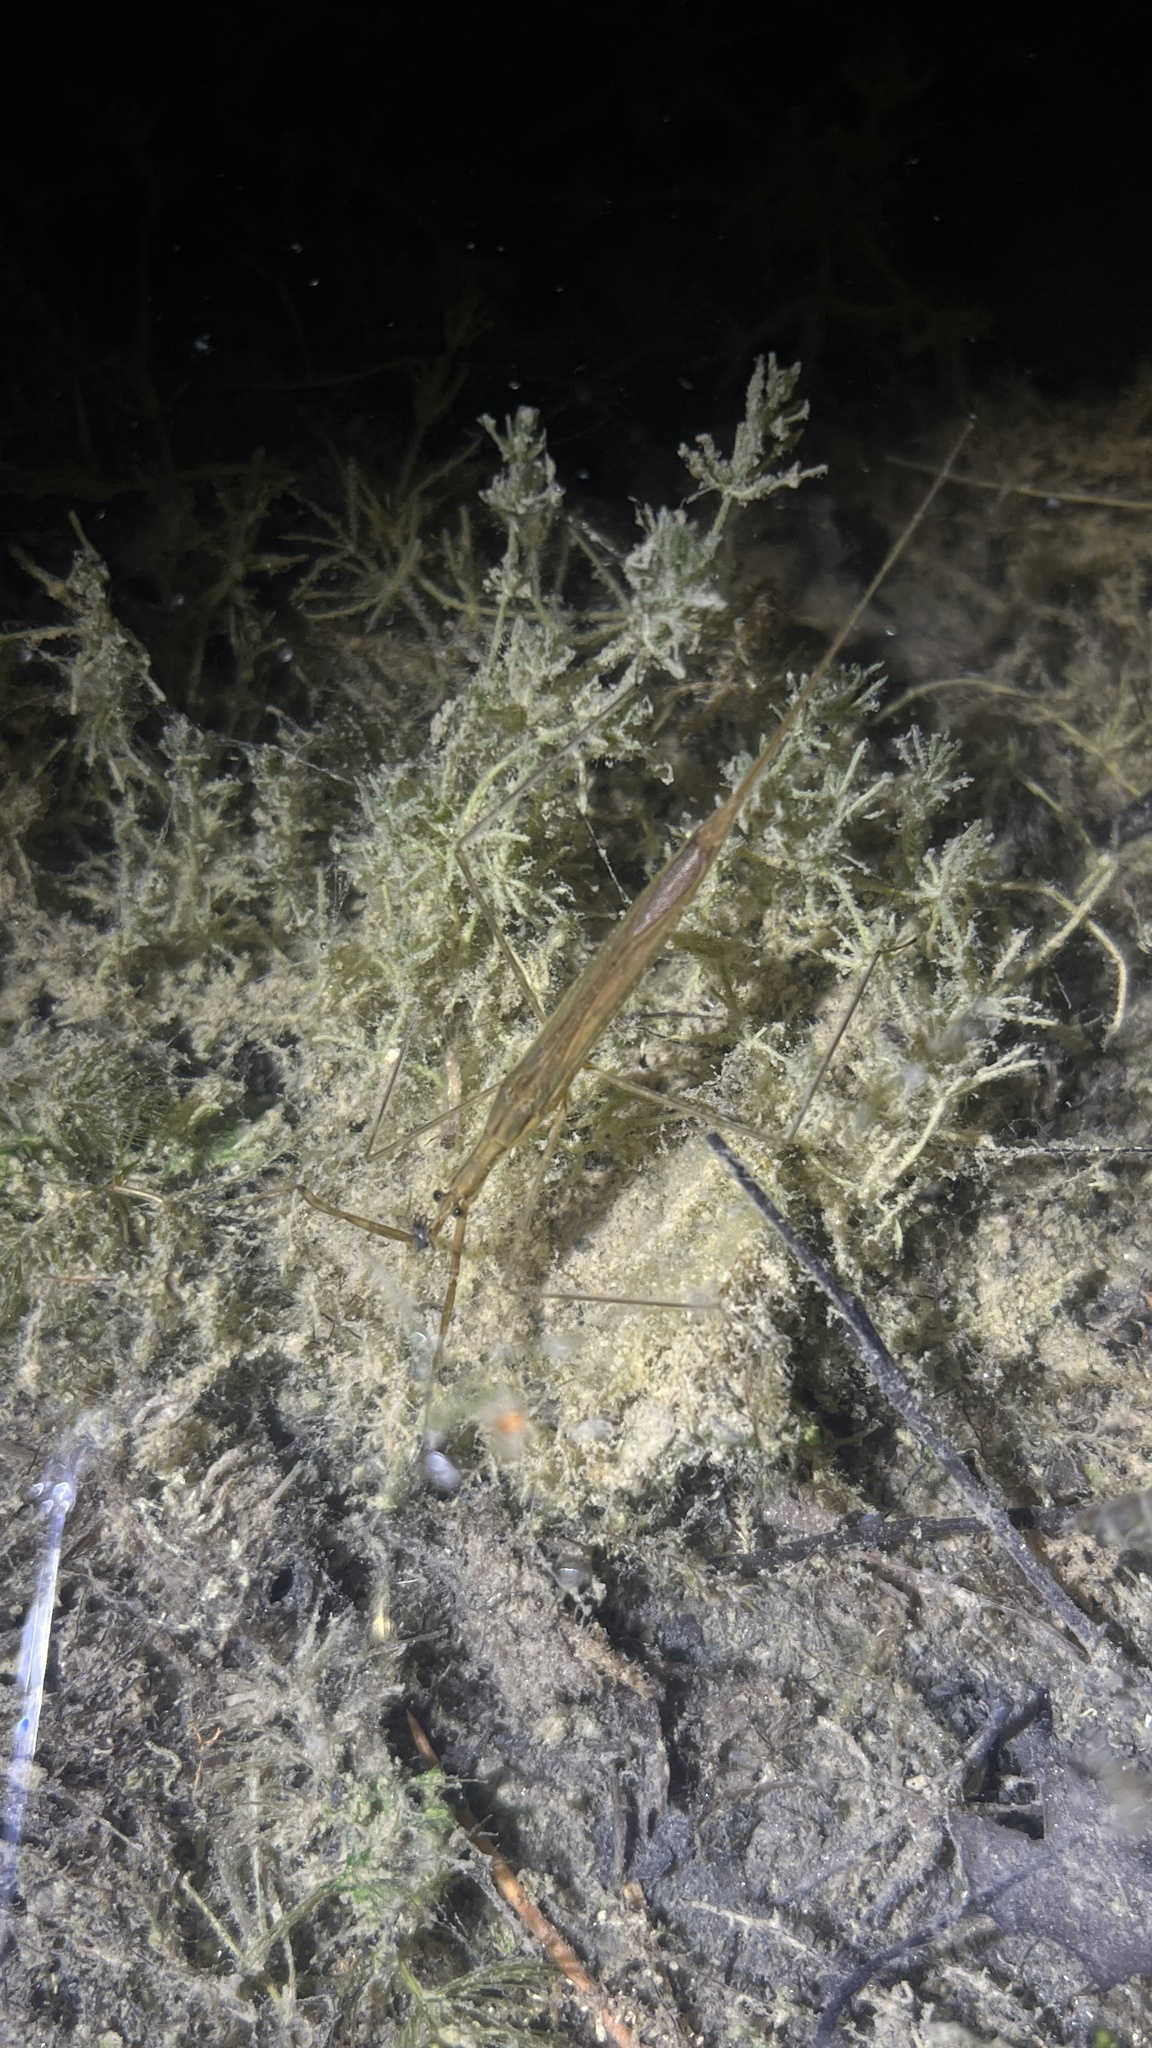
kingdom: Animalia
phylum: Arthropoda
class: Insecta
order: Hemiptera
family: Nepidae
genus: Ranatra
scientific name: Ranatra linearis
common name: Water stick insect
